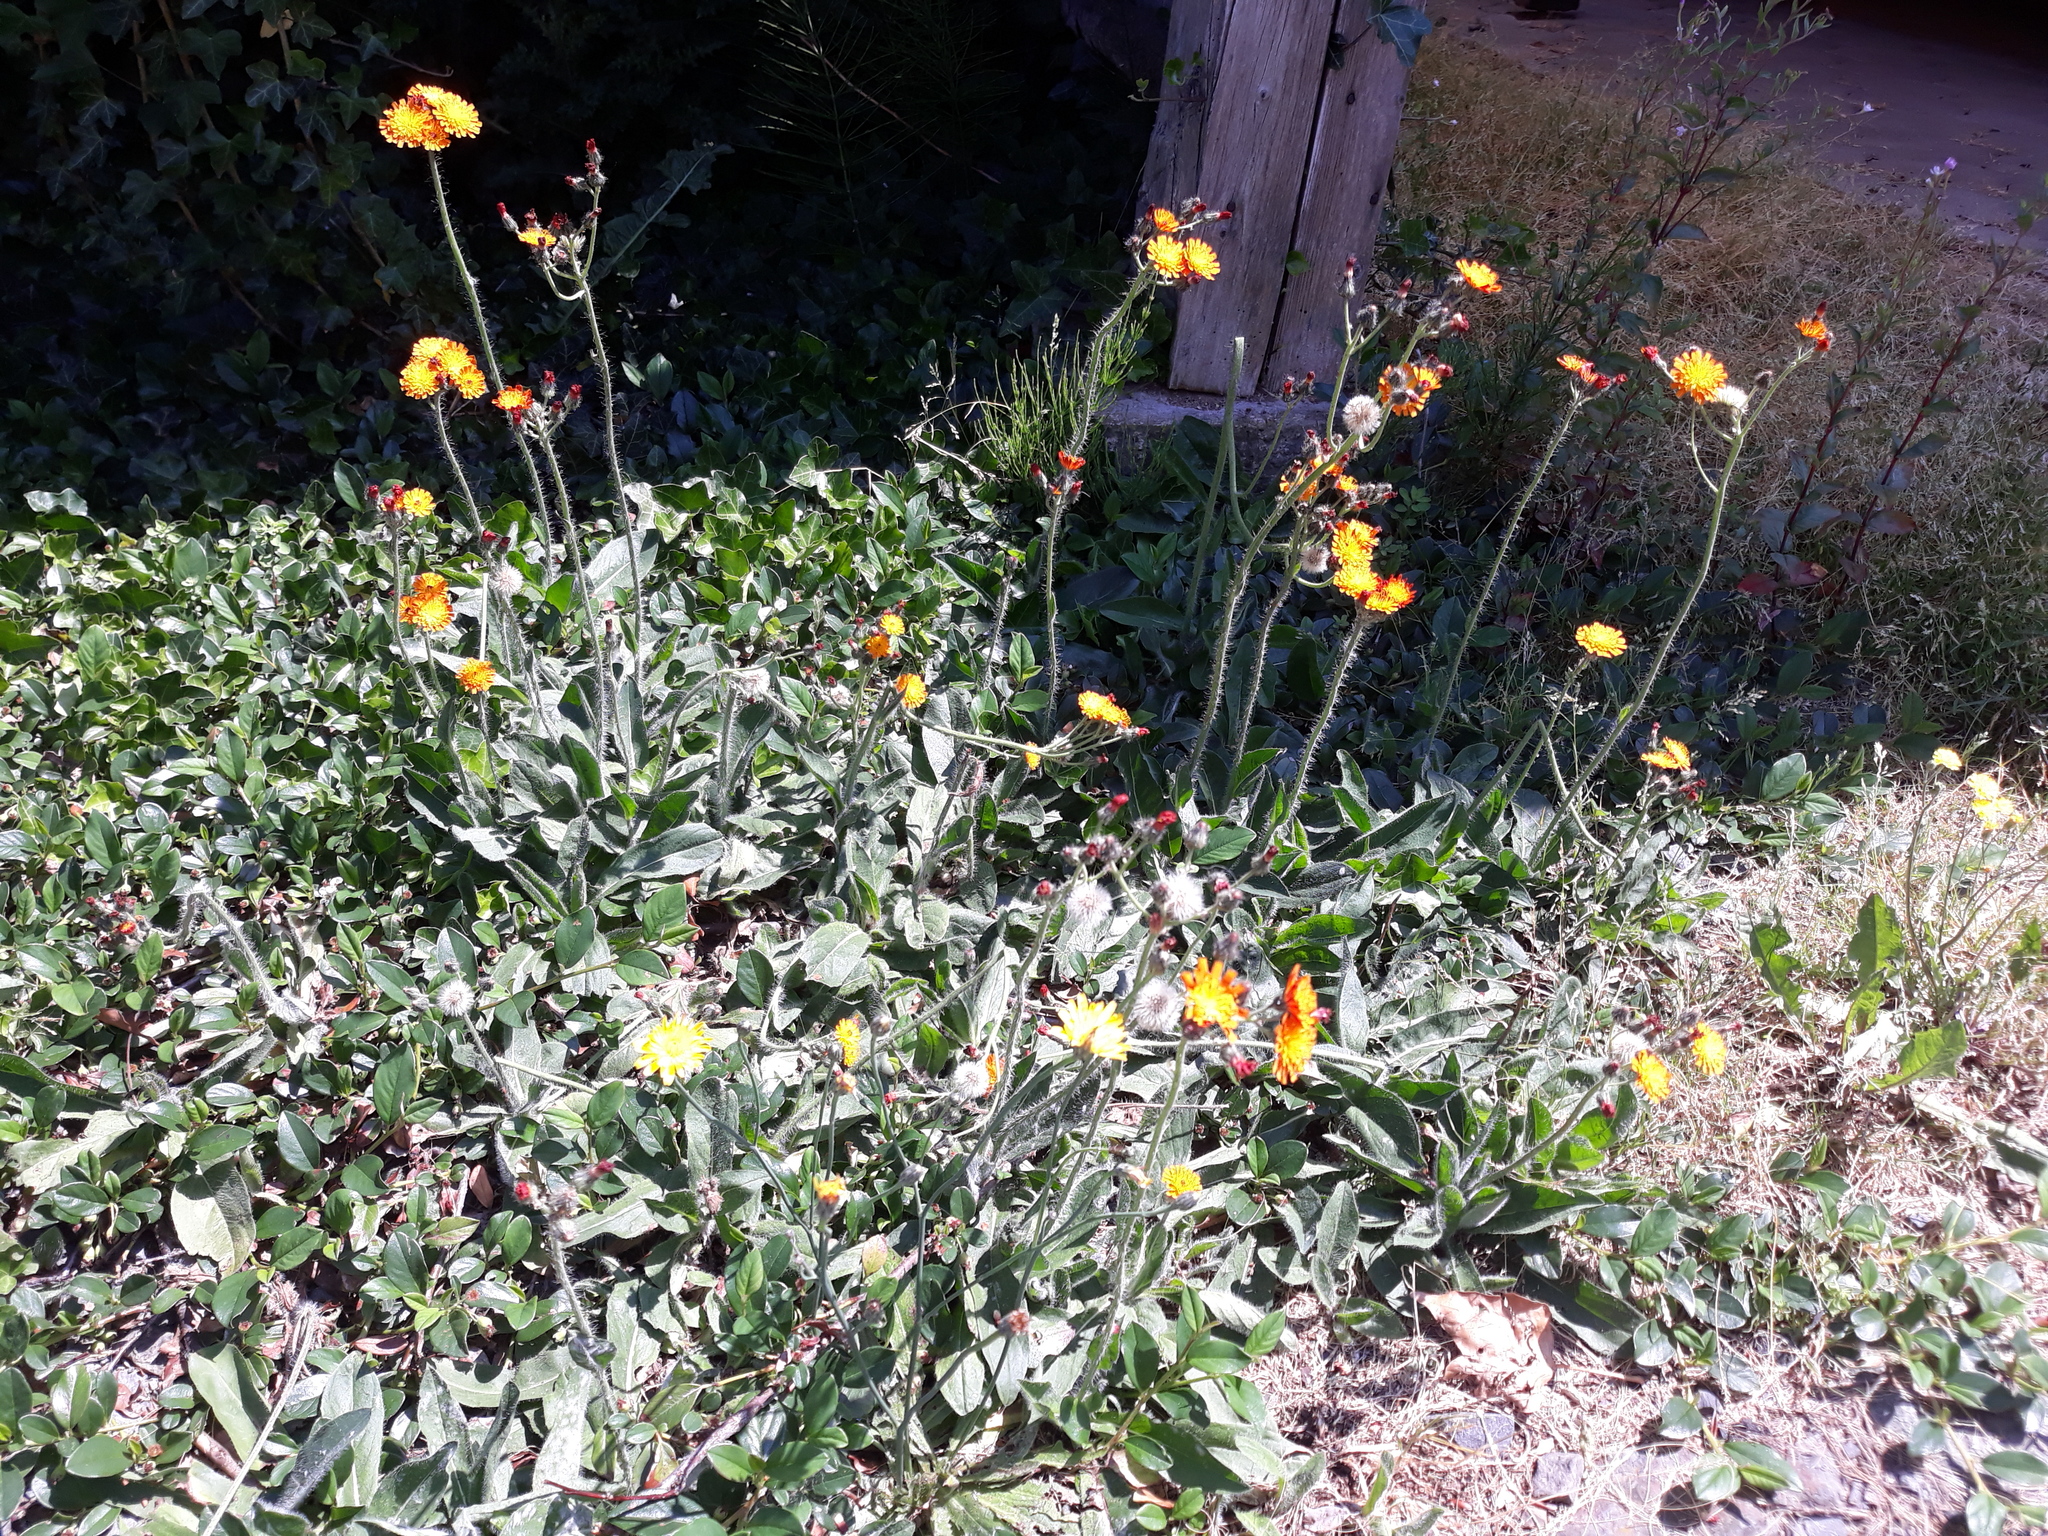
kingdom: Plantae
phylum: Tracheophyta
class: Magnoliopsida
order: Asterales
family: Asteraceae
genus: Pilosella
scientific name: Pilosella aurantiaca
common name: Fox-and-cubs
